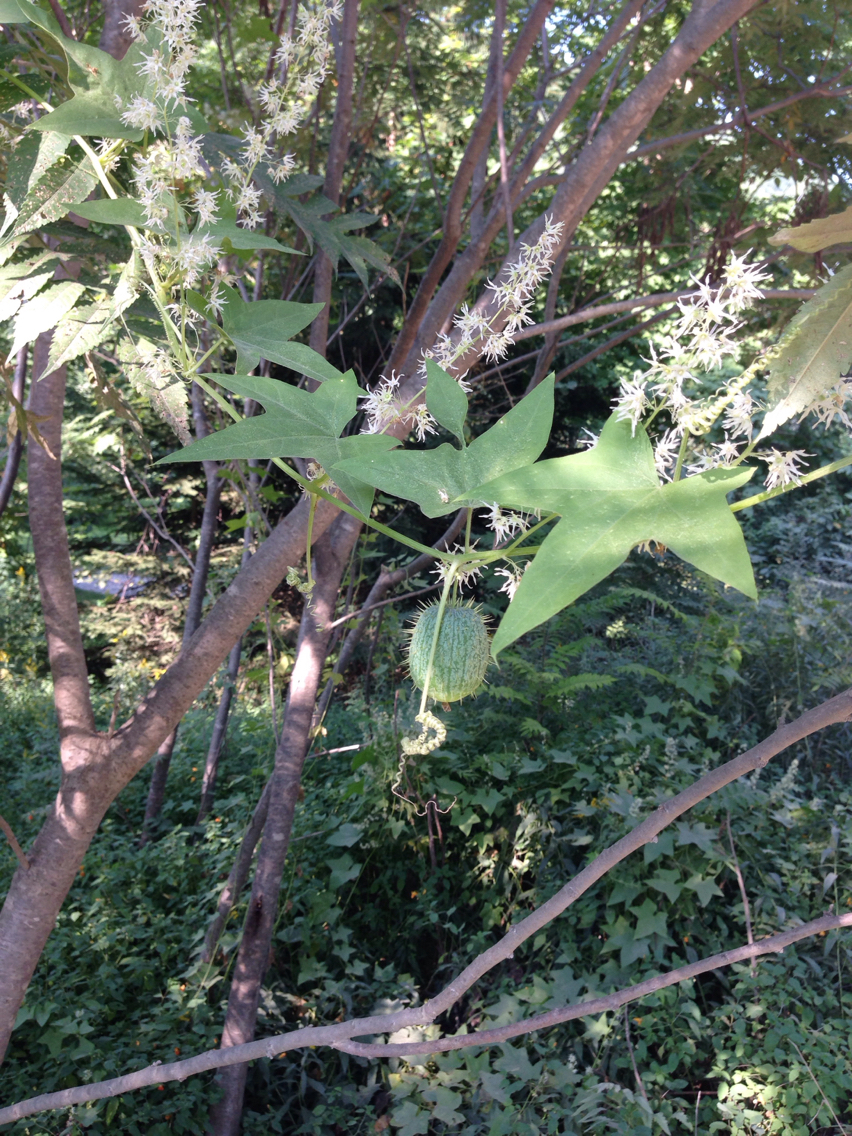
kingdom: Plantae
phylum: Tracheophyta
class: Magnoliopsida
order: Cucurbitales
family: Cucurbitaceae
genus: Echinocystis
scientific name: Echinocystis lobata
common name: Wild cucumber
